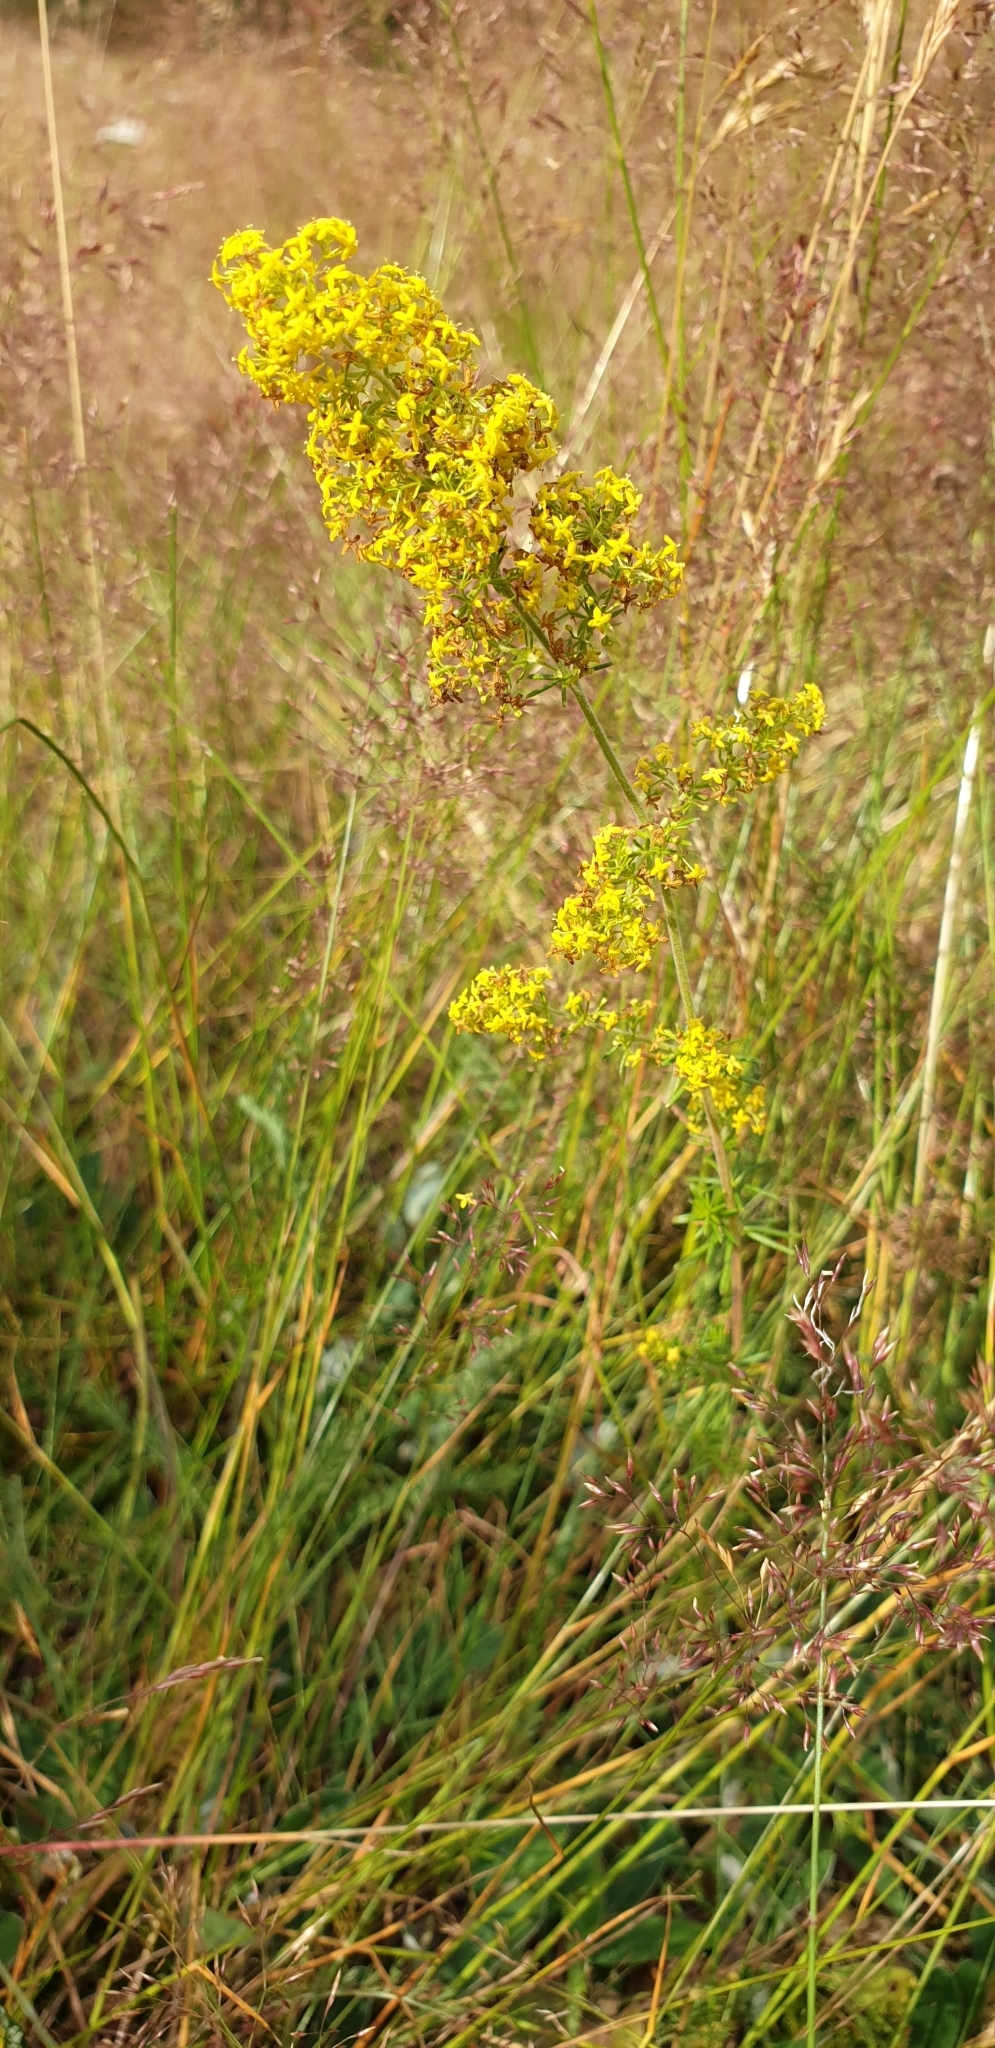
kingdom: Plantae
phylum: Tracheophyta
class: Magnoliopsida
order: Gentianales
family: Rubiaceae
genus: Galium
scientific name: Galium verum
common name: Lady's bedstraw
